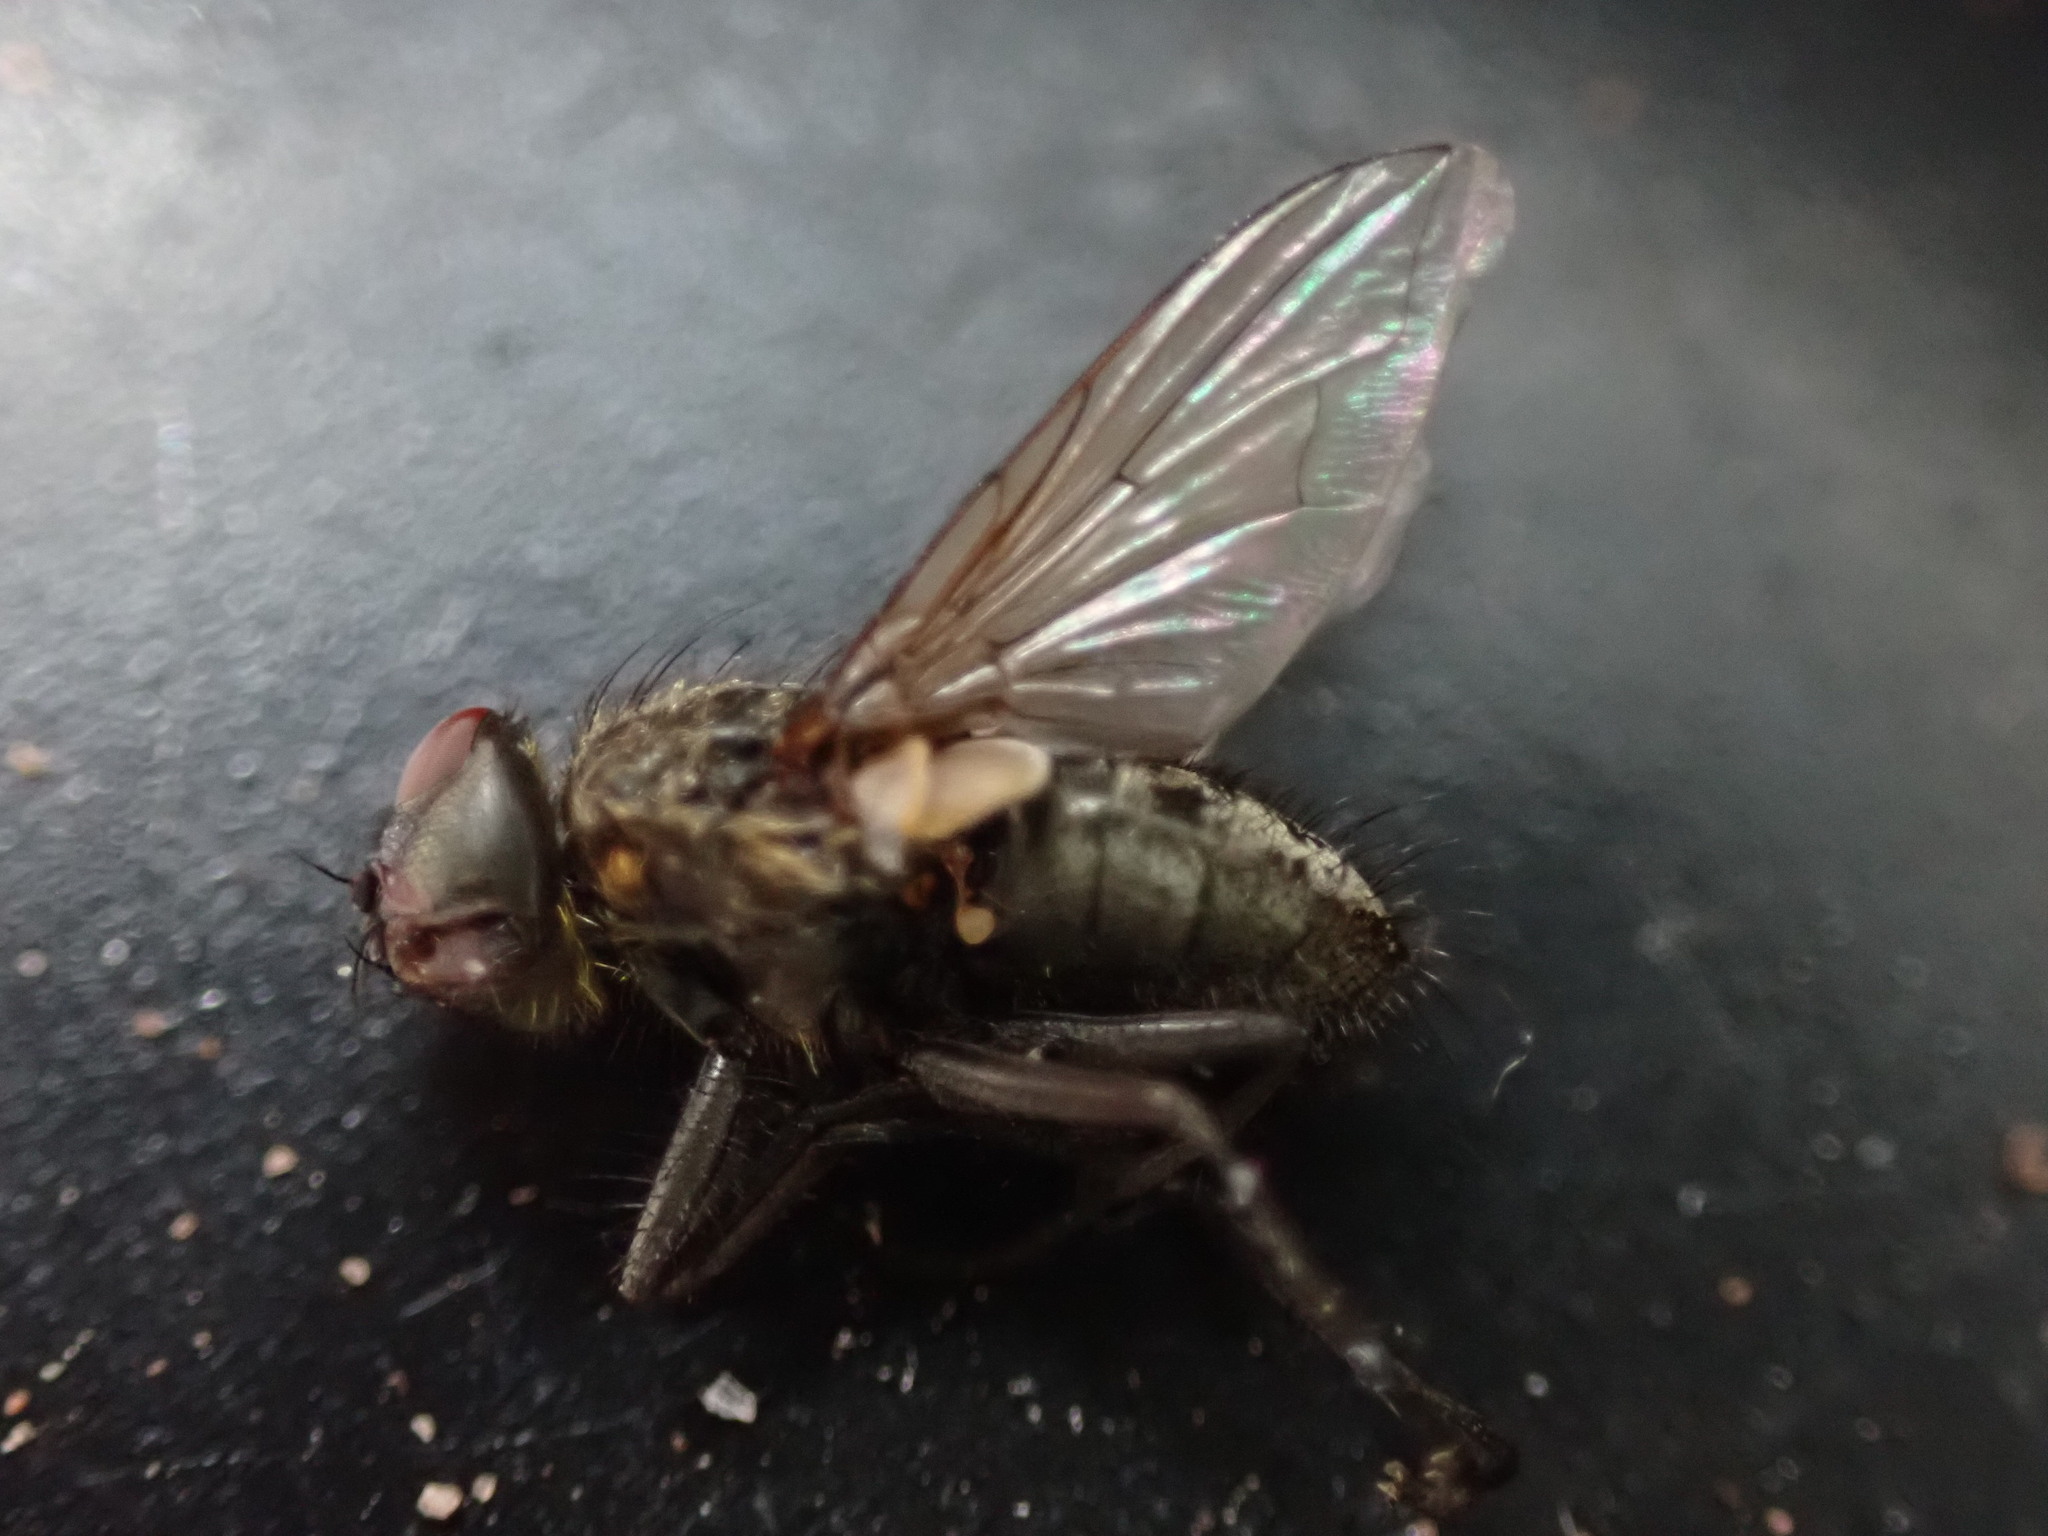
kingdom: Animalia
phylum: Arthropoda
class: Insecta
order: Diptera
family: Polleniidae
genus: Pollenia
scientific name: Pollenia pediculata
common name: Tufted clusterfly
